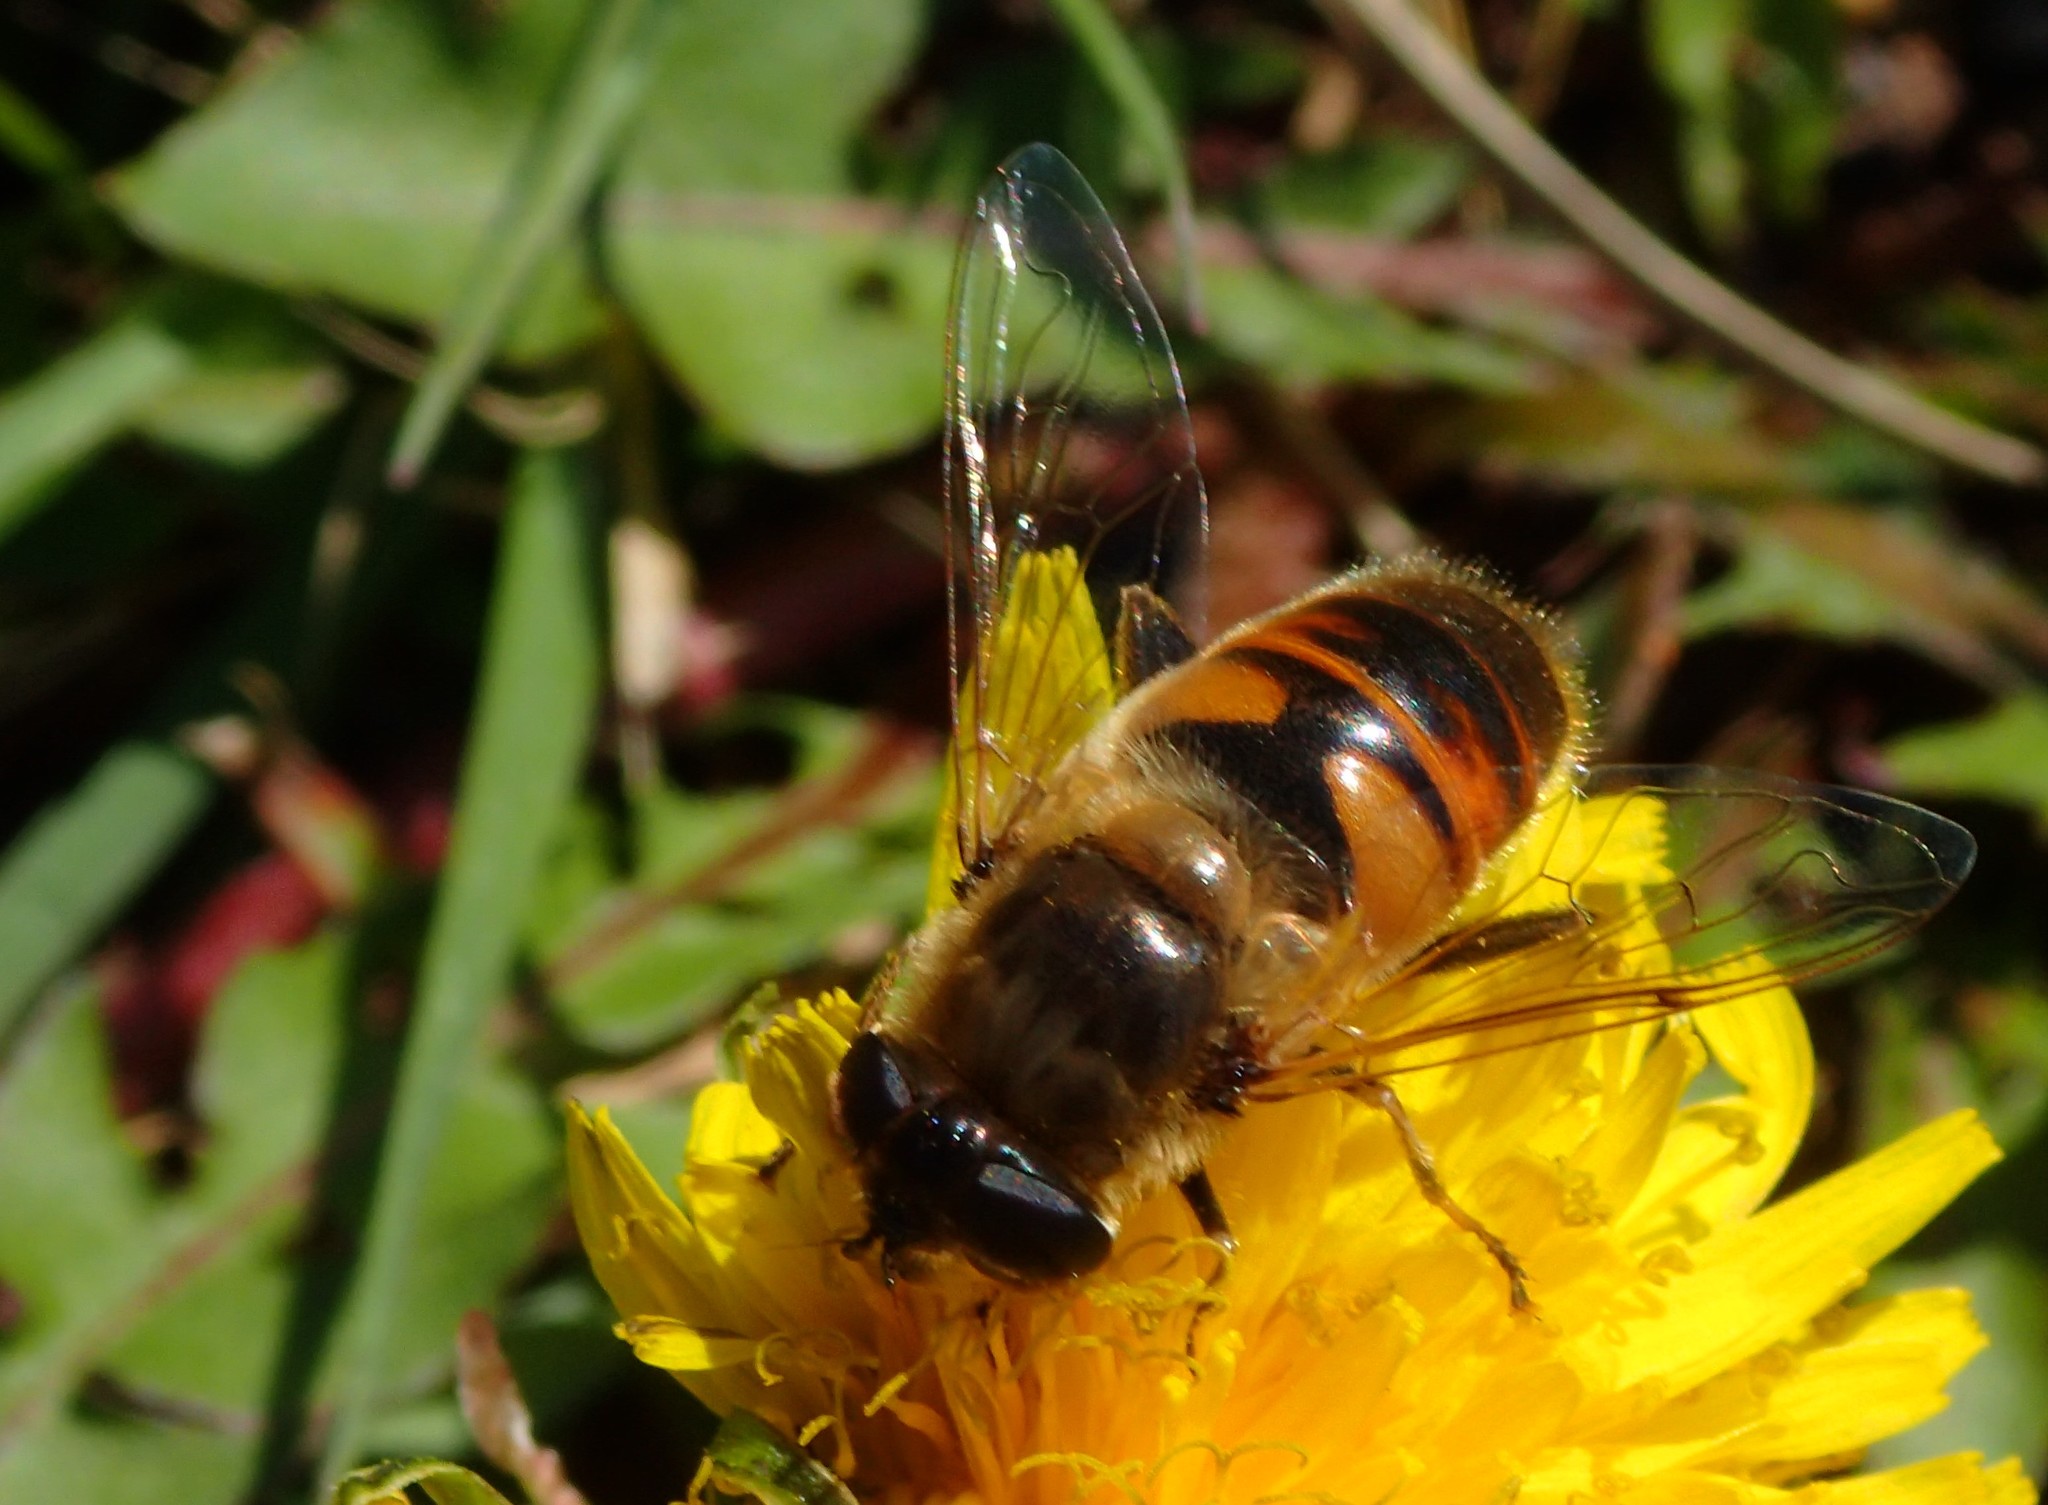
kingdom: Animalia
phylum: Arthropoda
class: Insecta
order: Diptera
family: Syrphidae
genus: Eristalis
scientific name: Eristalis tenax
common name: Drone fly
